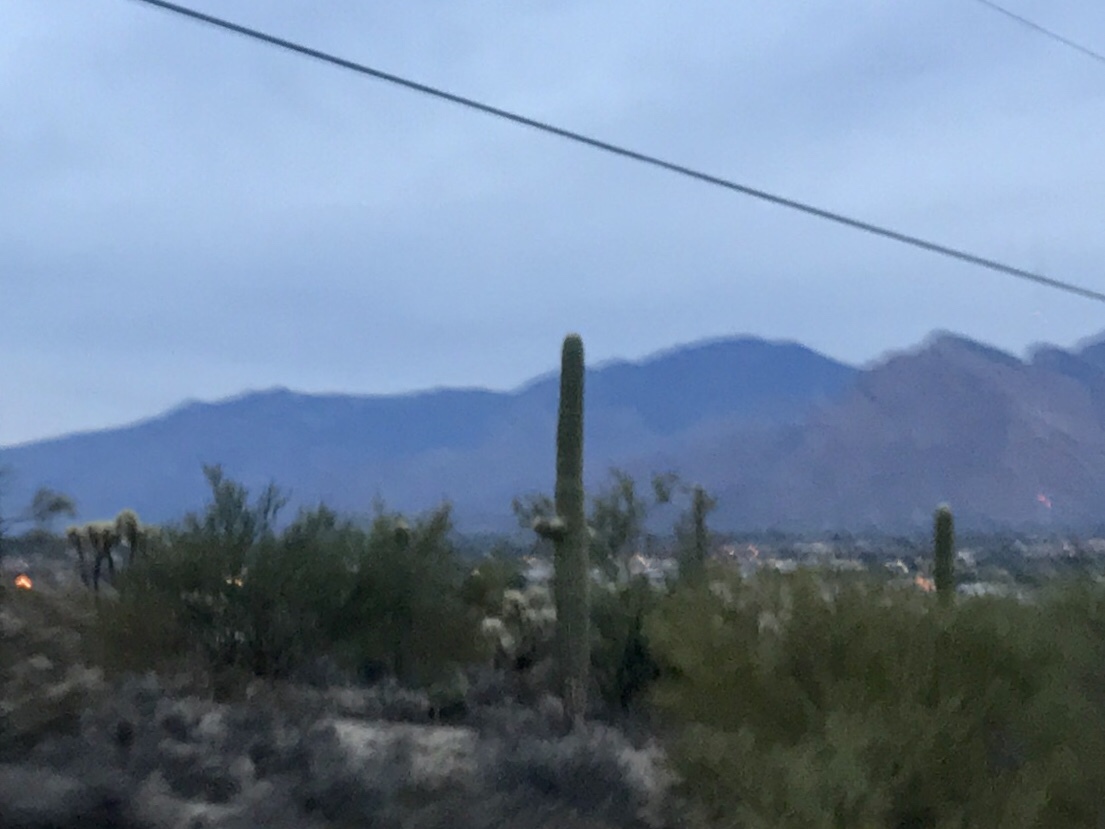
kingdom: Plantae
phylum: Tracheophyta
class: Magnoliopsida
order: Caryophyllales
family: Cactaceae
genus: Carnegiea
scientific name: Carnegiea gigantea
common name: Saguaro
